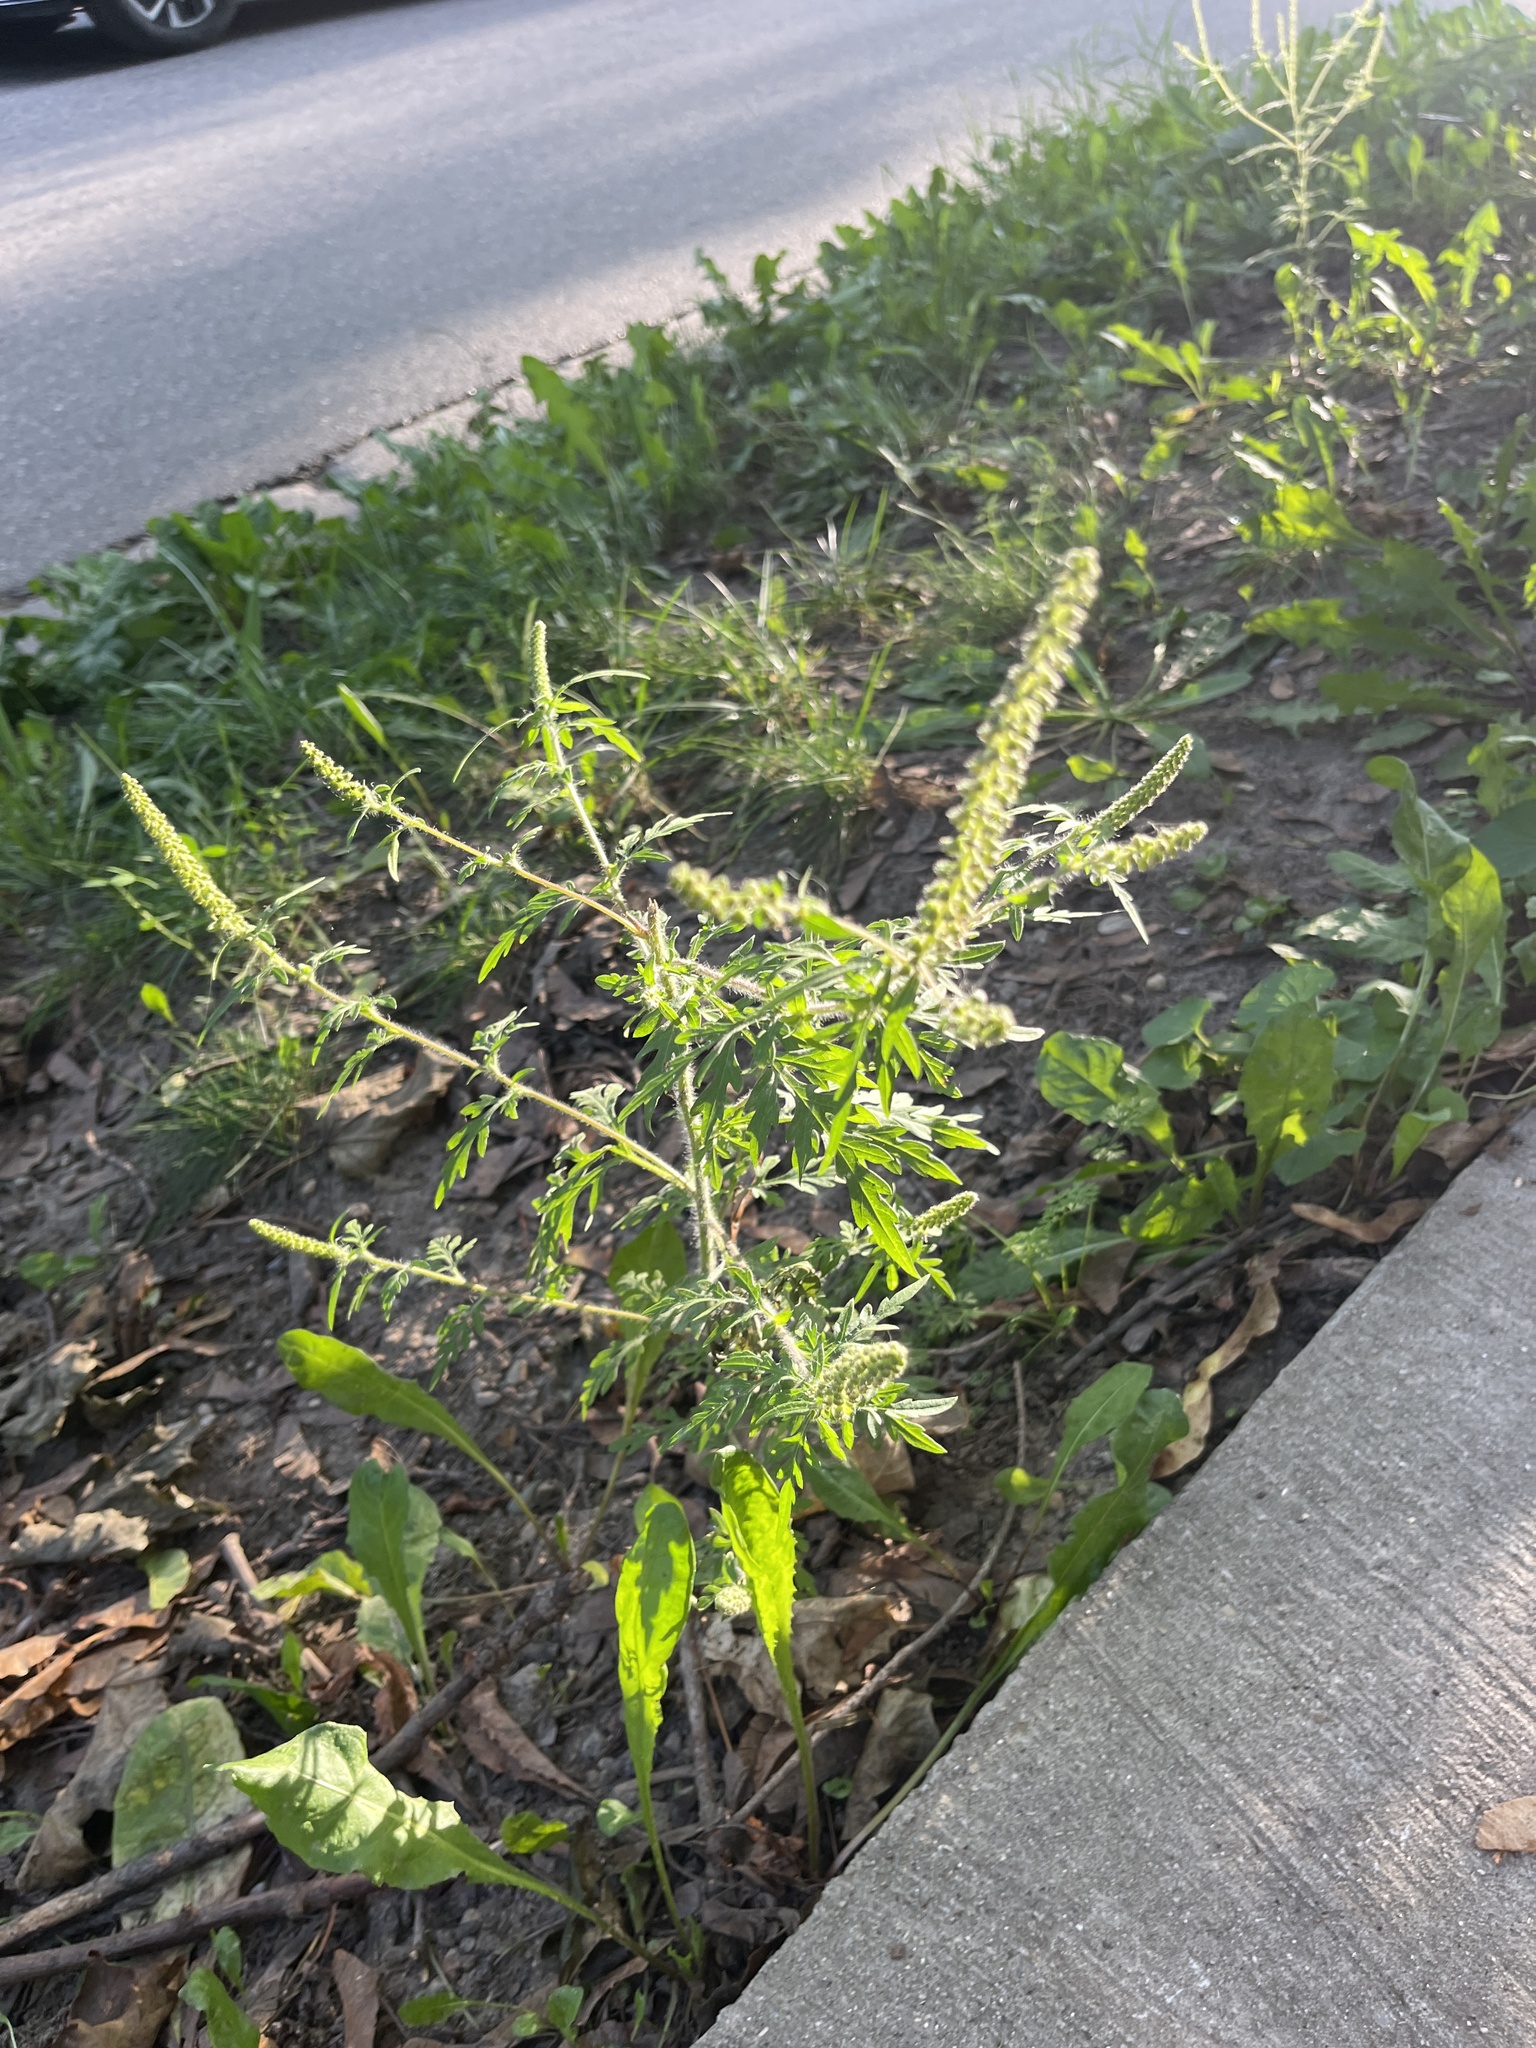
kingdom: Plantae
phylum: Tracheophyta
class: Magnoliopsida
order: Asterales
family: Asteraceae
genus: Ambrosia
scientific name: Ambrosia artemisiifolia
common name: Annual ragweed
